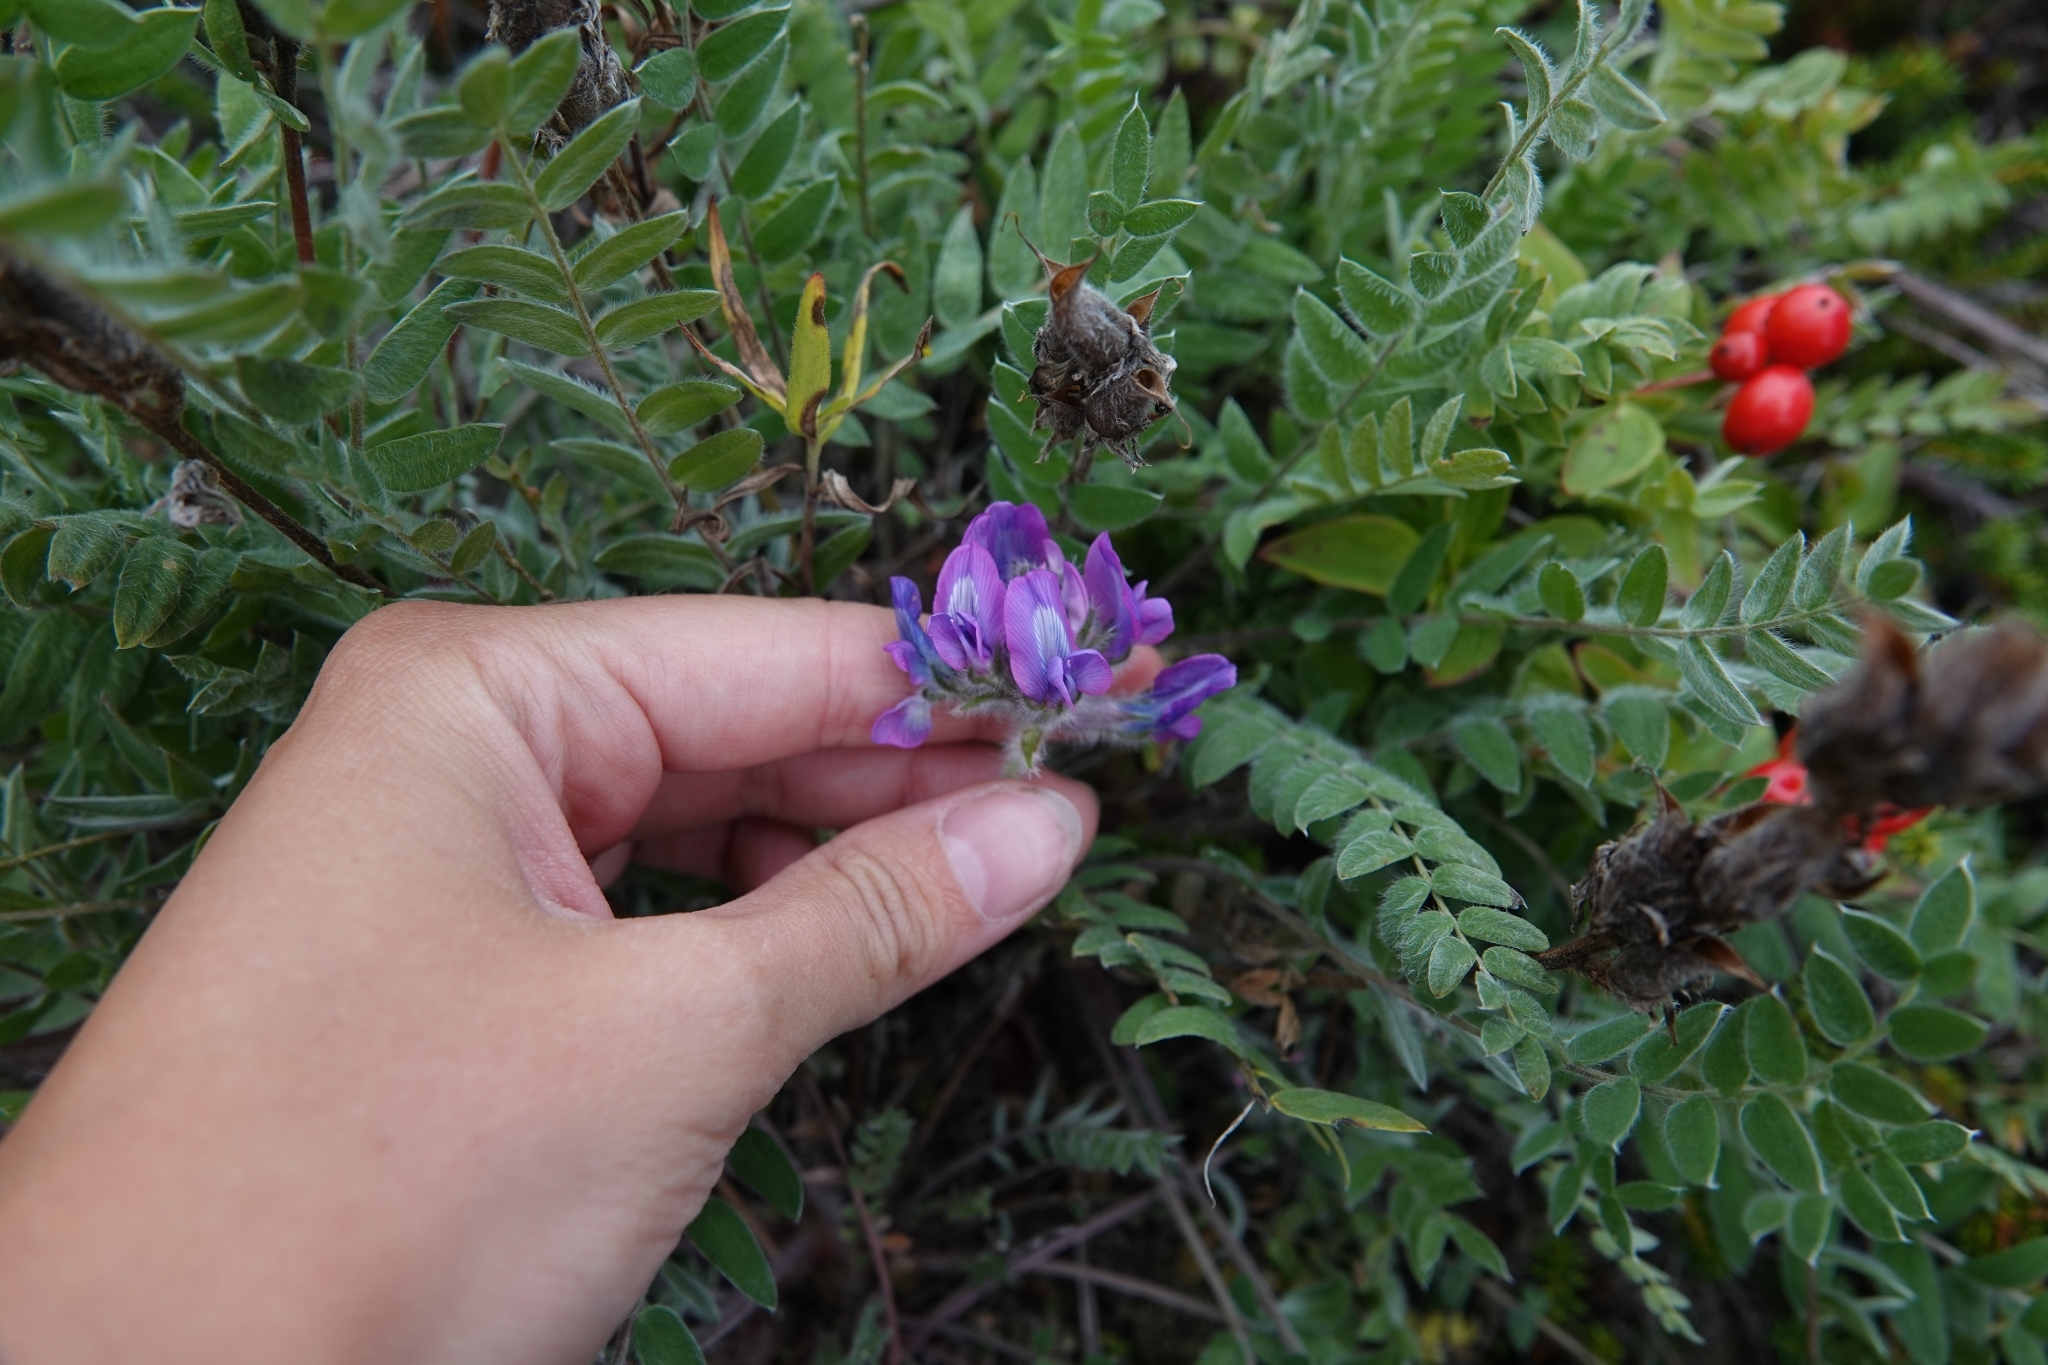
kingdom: Plantae
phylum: Tracheophyta
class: Magnoliopsida
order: Fabales
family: Fabaceae
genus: Oxytropis
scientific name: Oxytropis adamsiana
